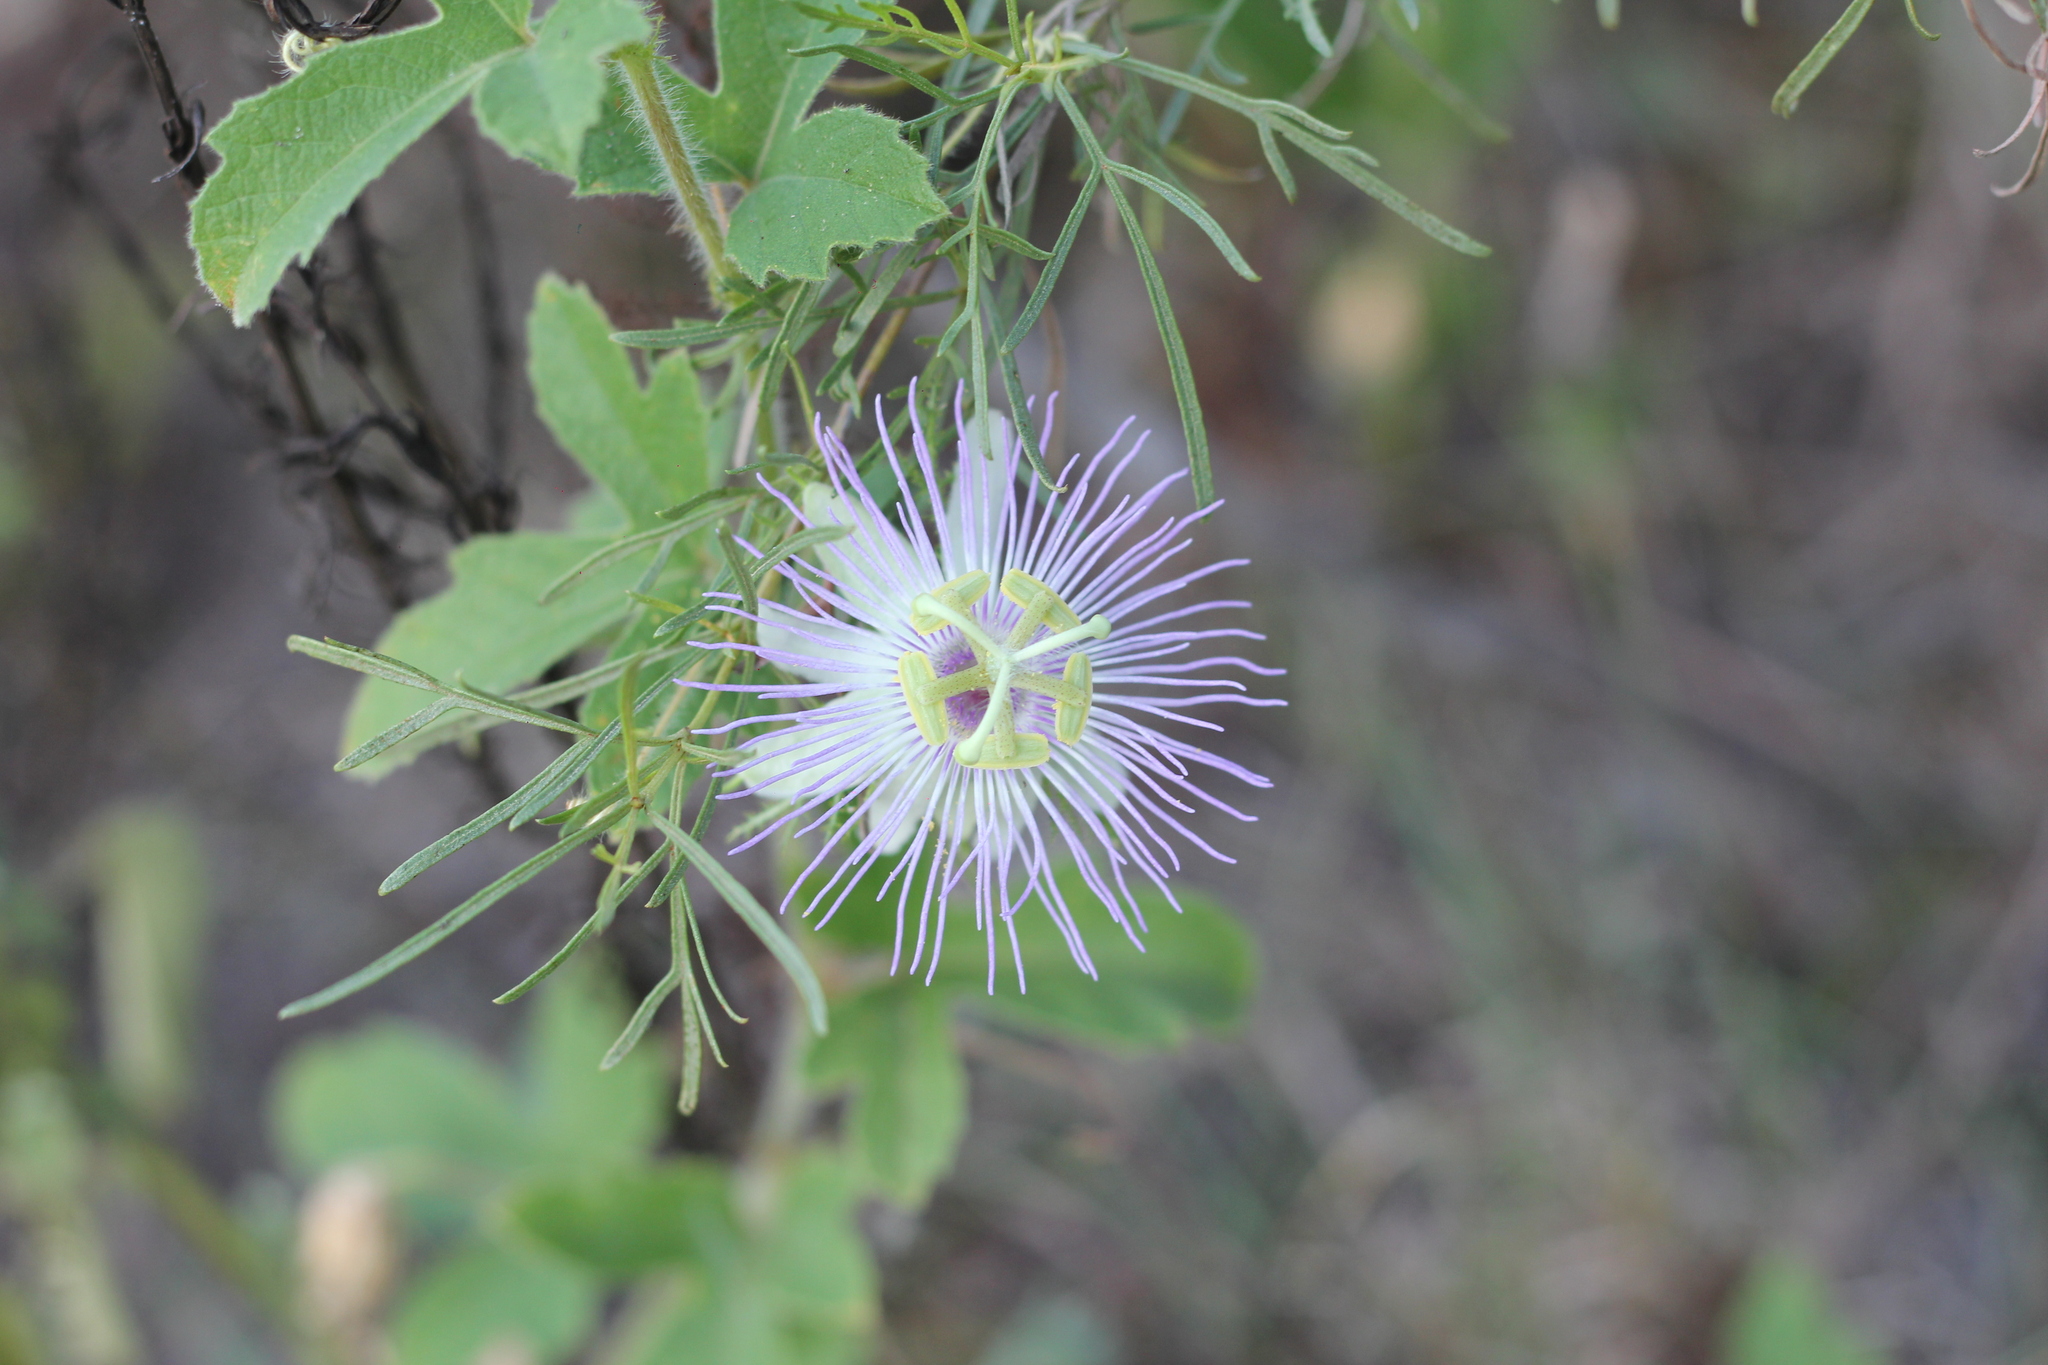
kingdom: Plantae
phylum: Tracheophyta
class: Magnoliopsida
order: Malpighiales
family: Passifloraceae
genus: Passiflora
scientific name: Passiflora chrysophylla
